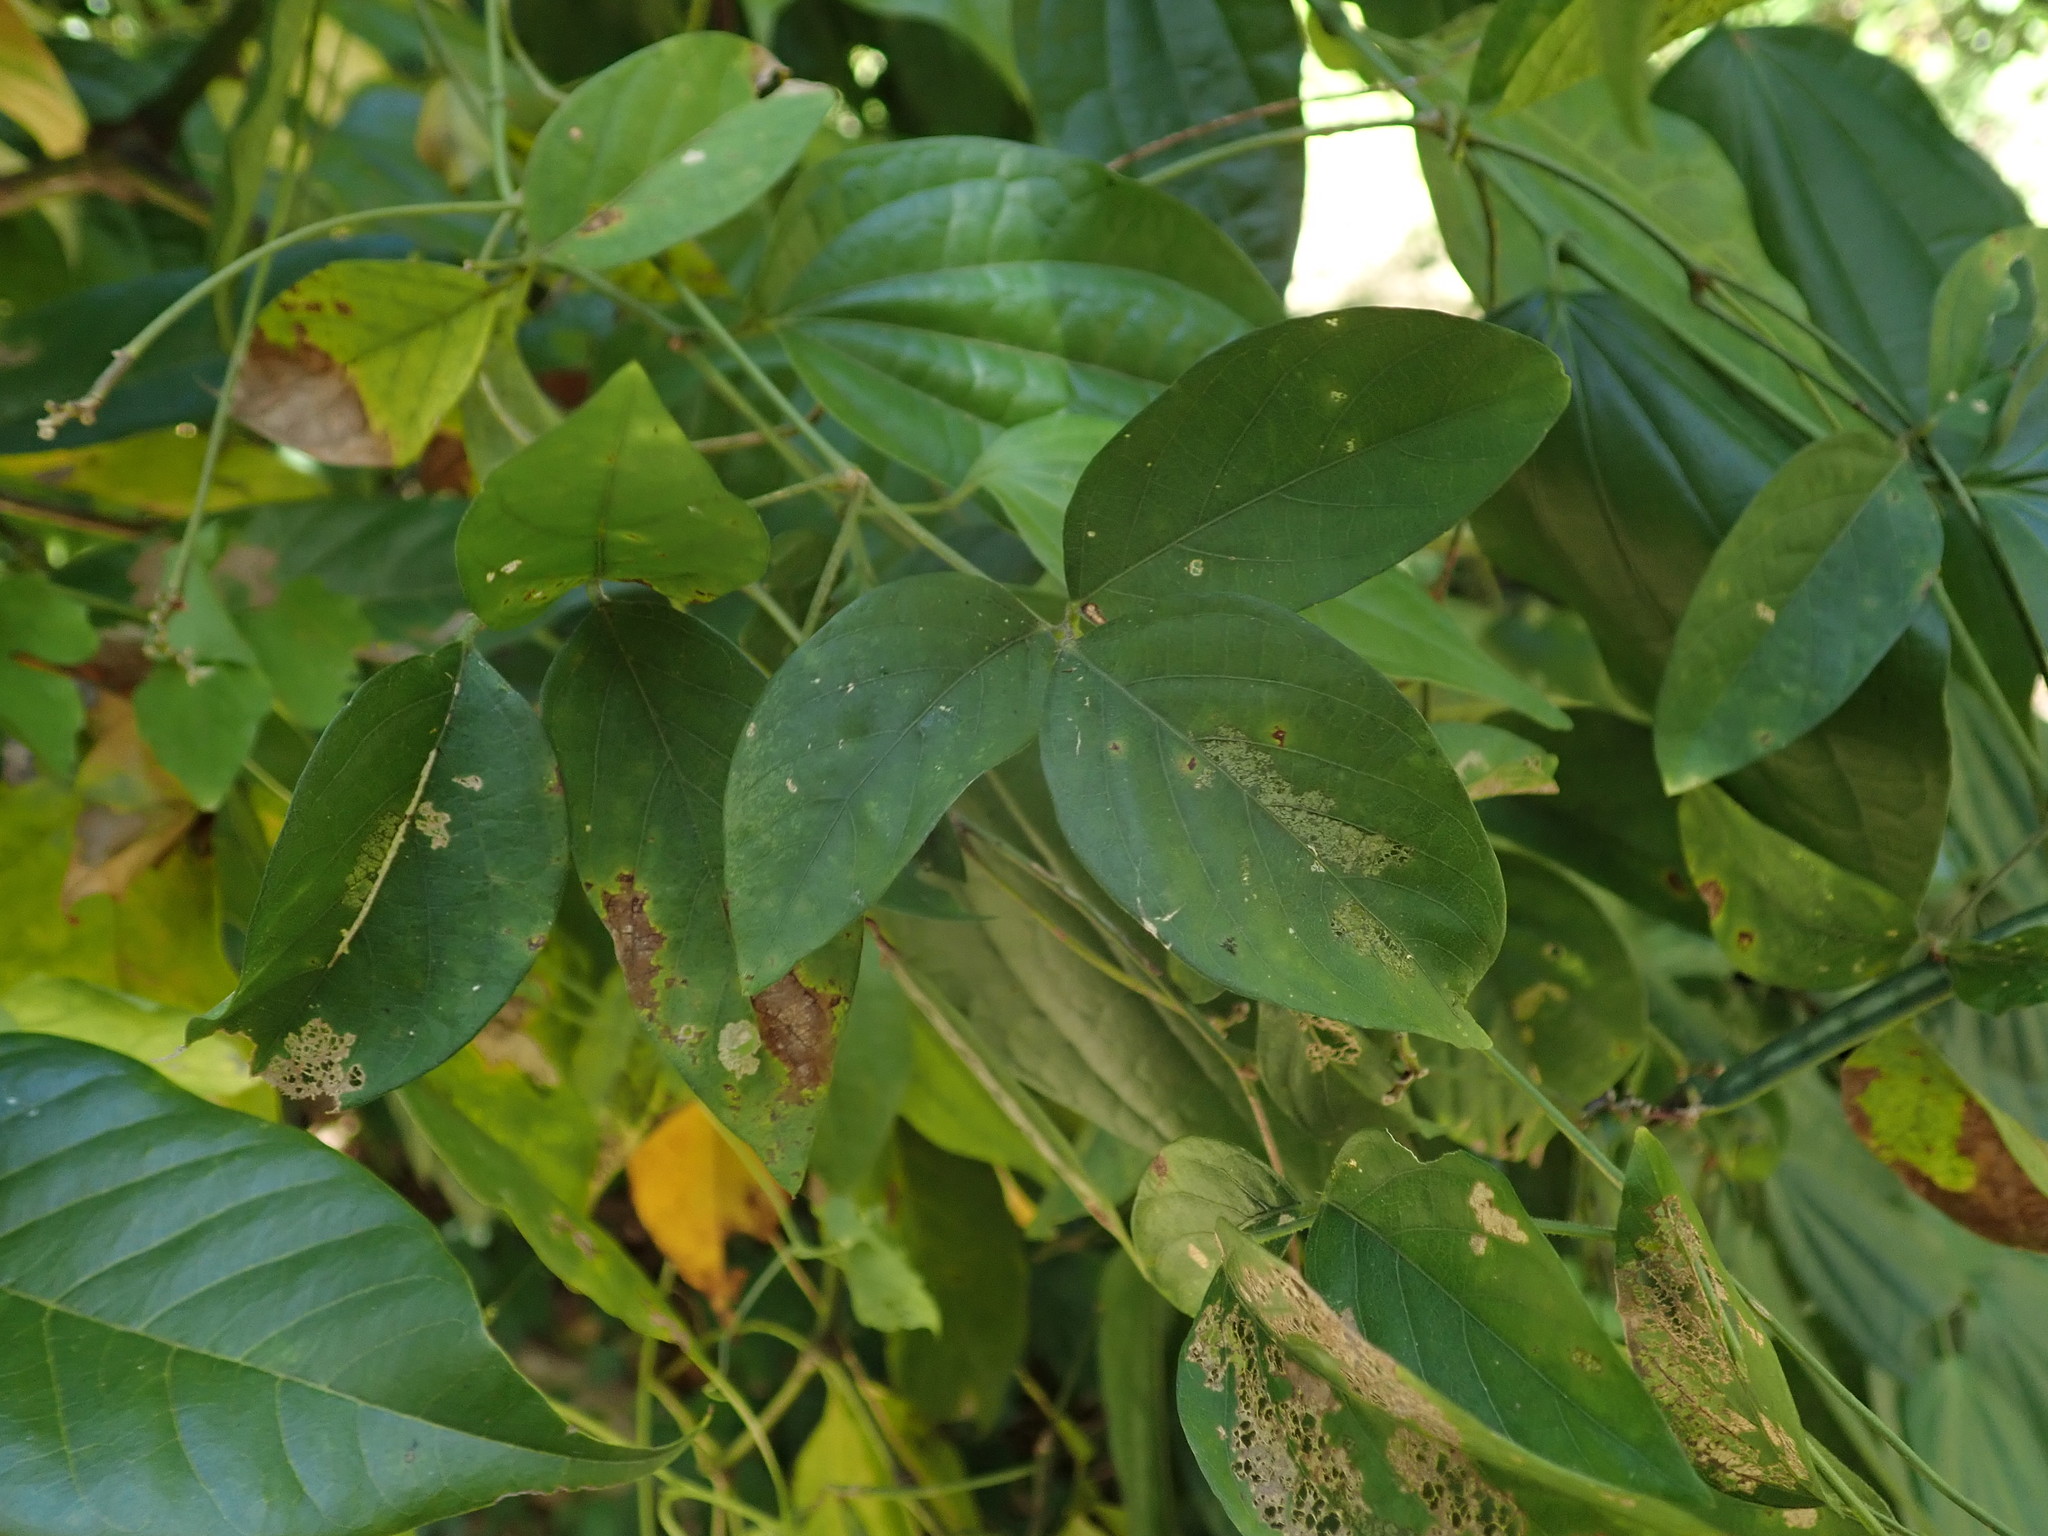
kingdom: Plantae
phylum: Tracheophyta
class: Magnoliopsida
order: Fabales
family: Fabaceae
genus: Centrosema
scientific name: Centrosema pubescens
